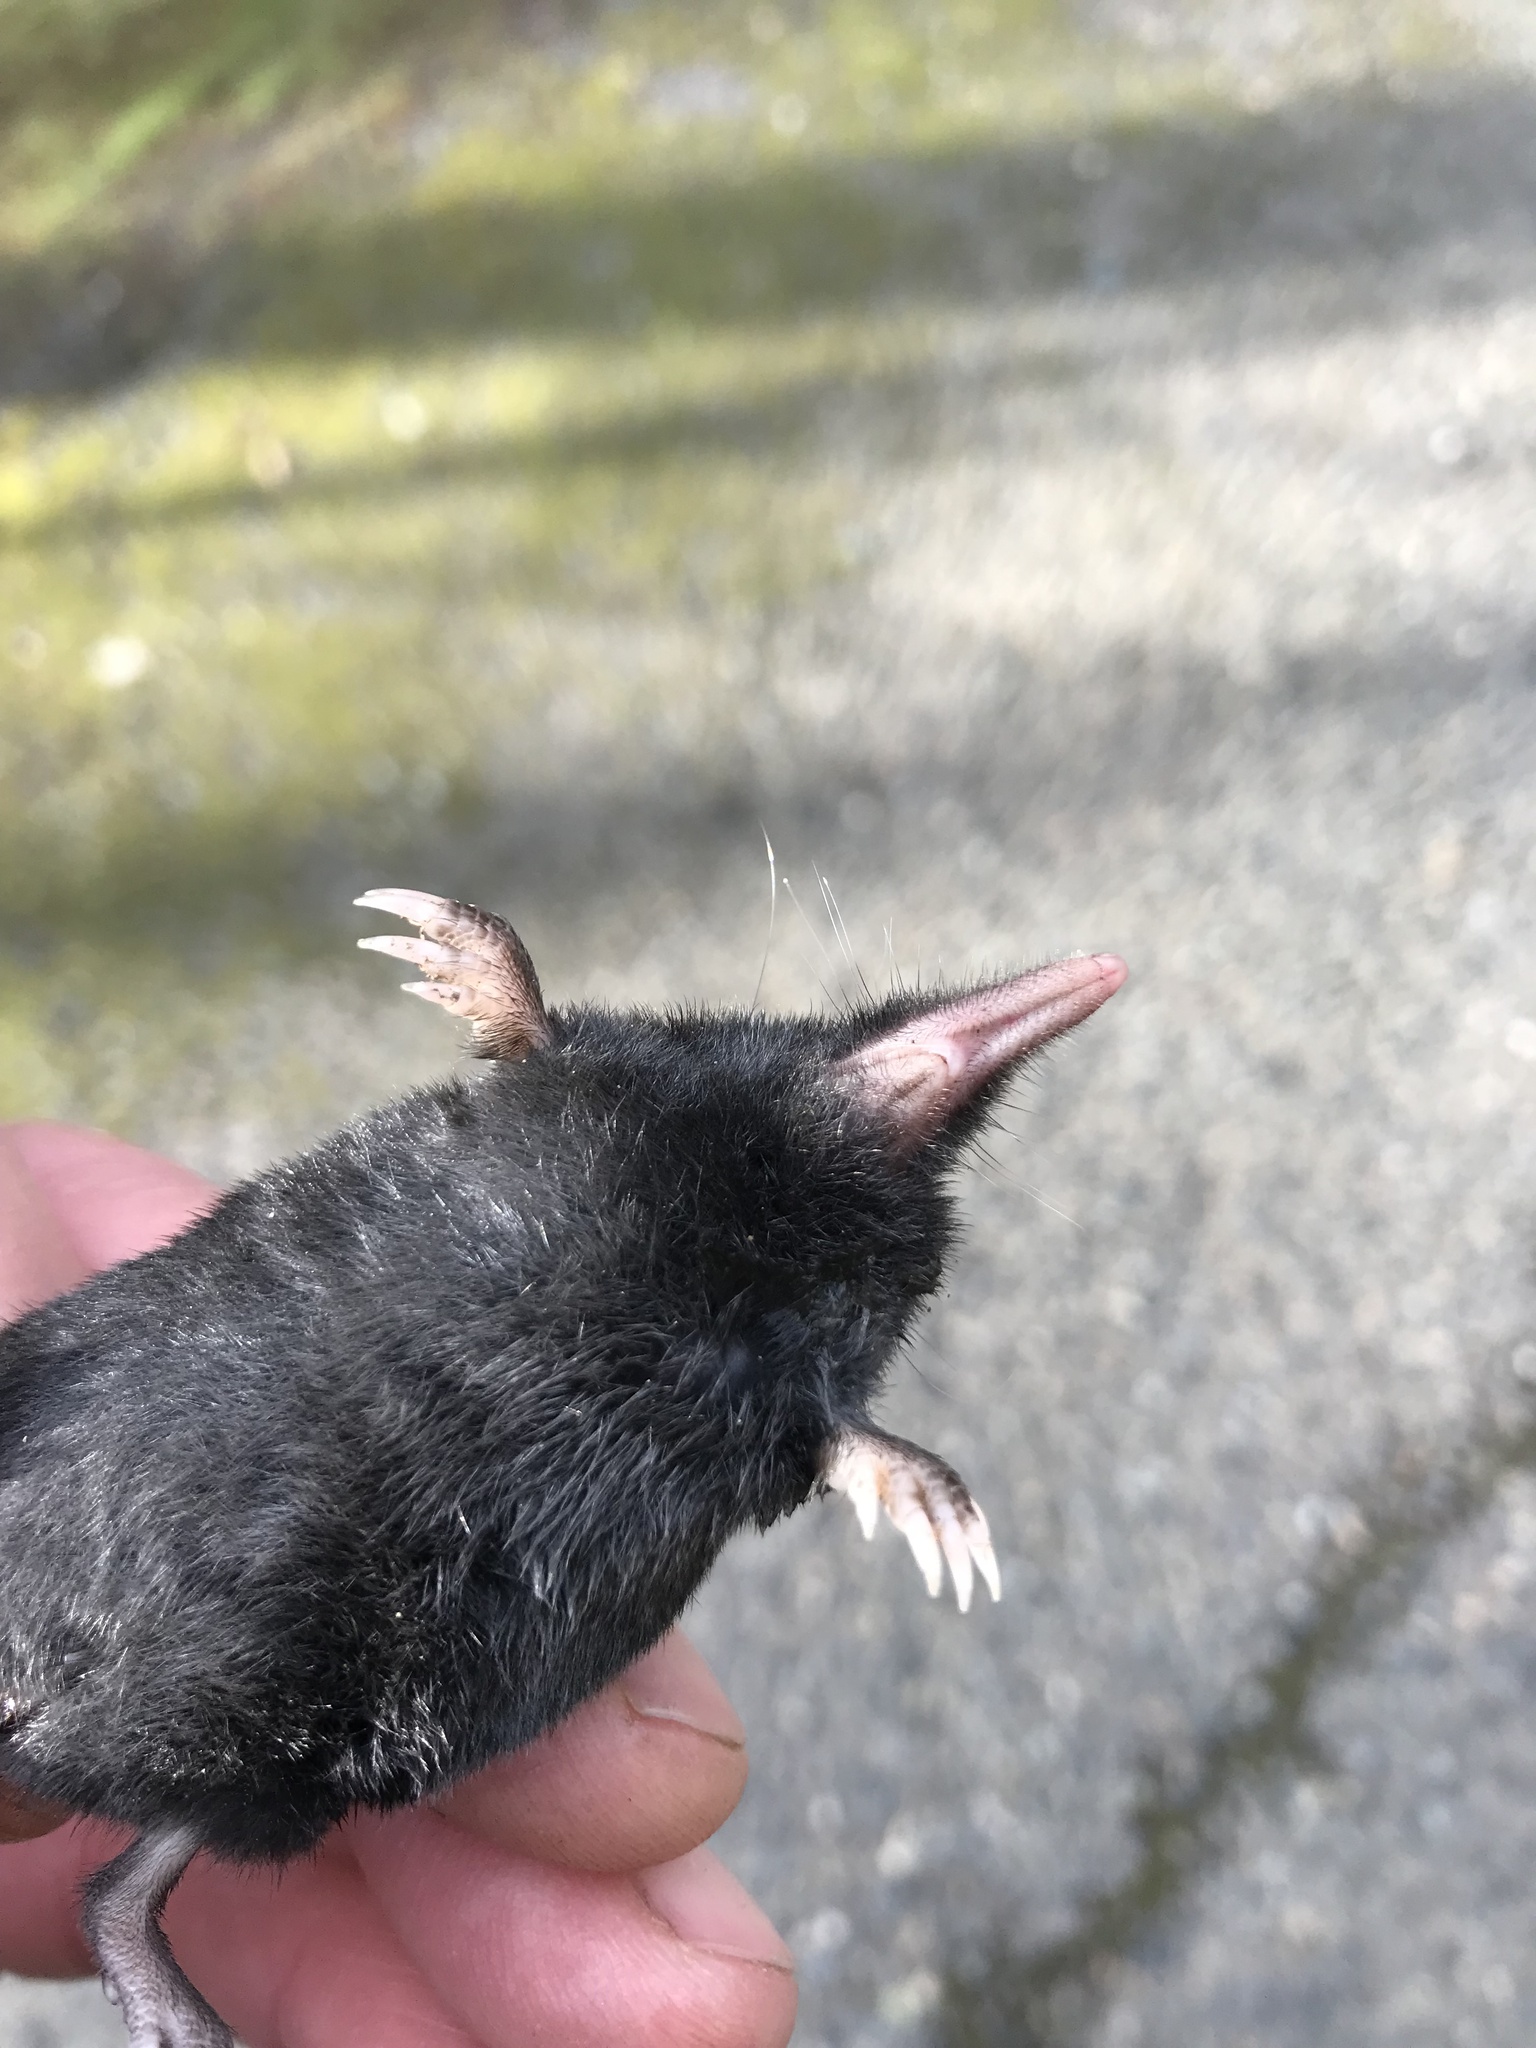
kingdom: Animalia
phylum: Chordata
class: Mammalia
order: Soricomorpha
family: Talpidae
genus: Neurotrichus
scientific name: Neurotrichus gibbsii
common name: American shrew mole
